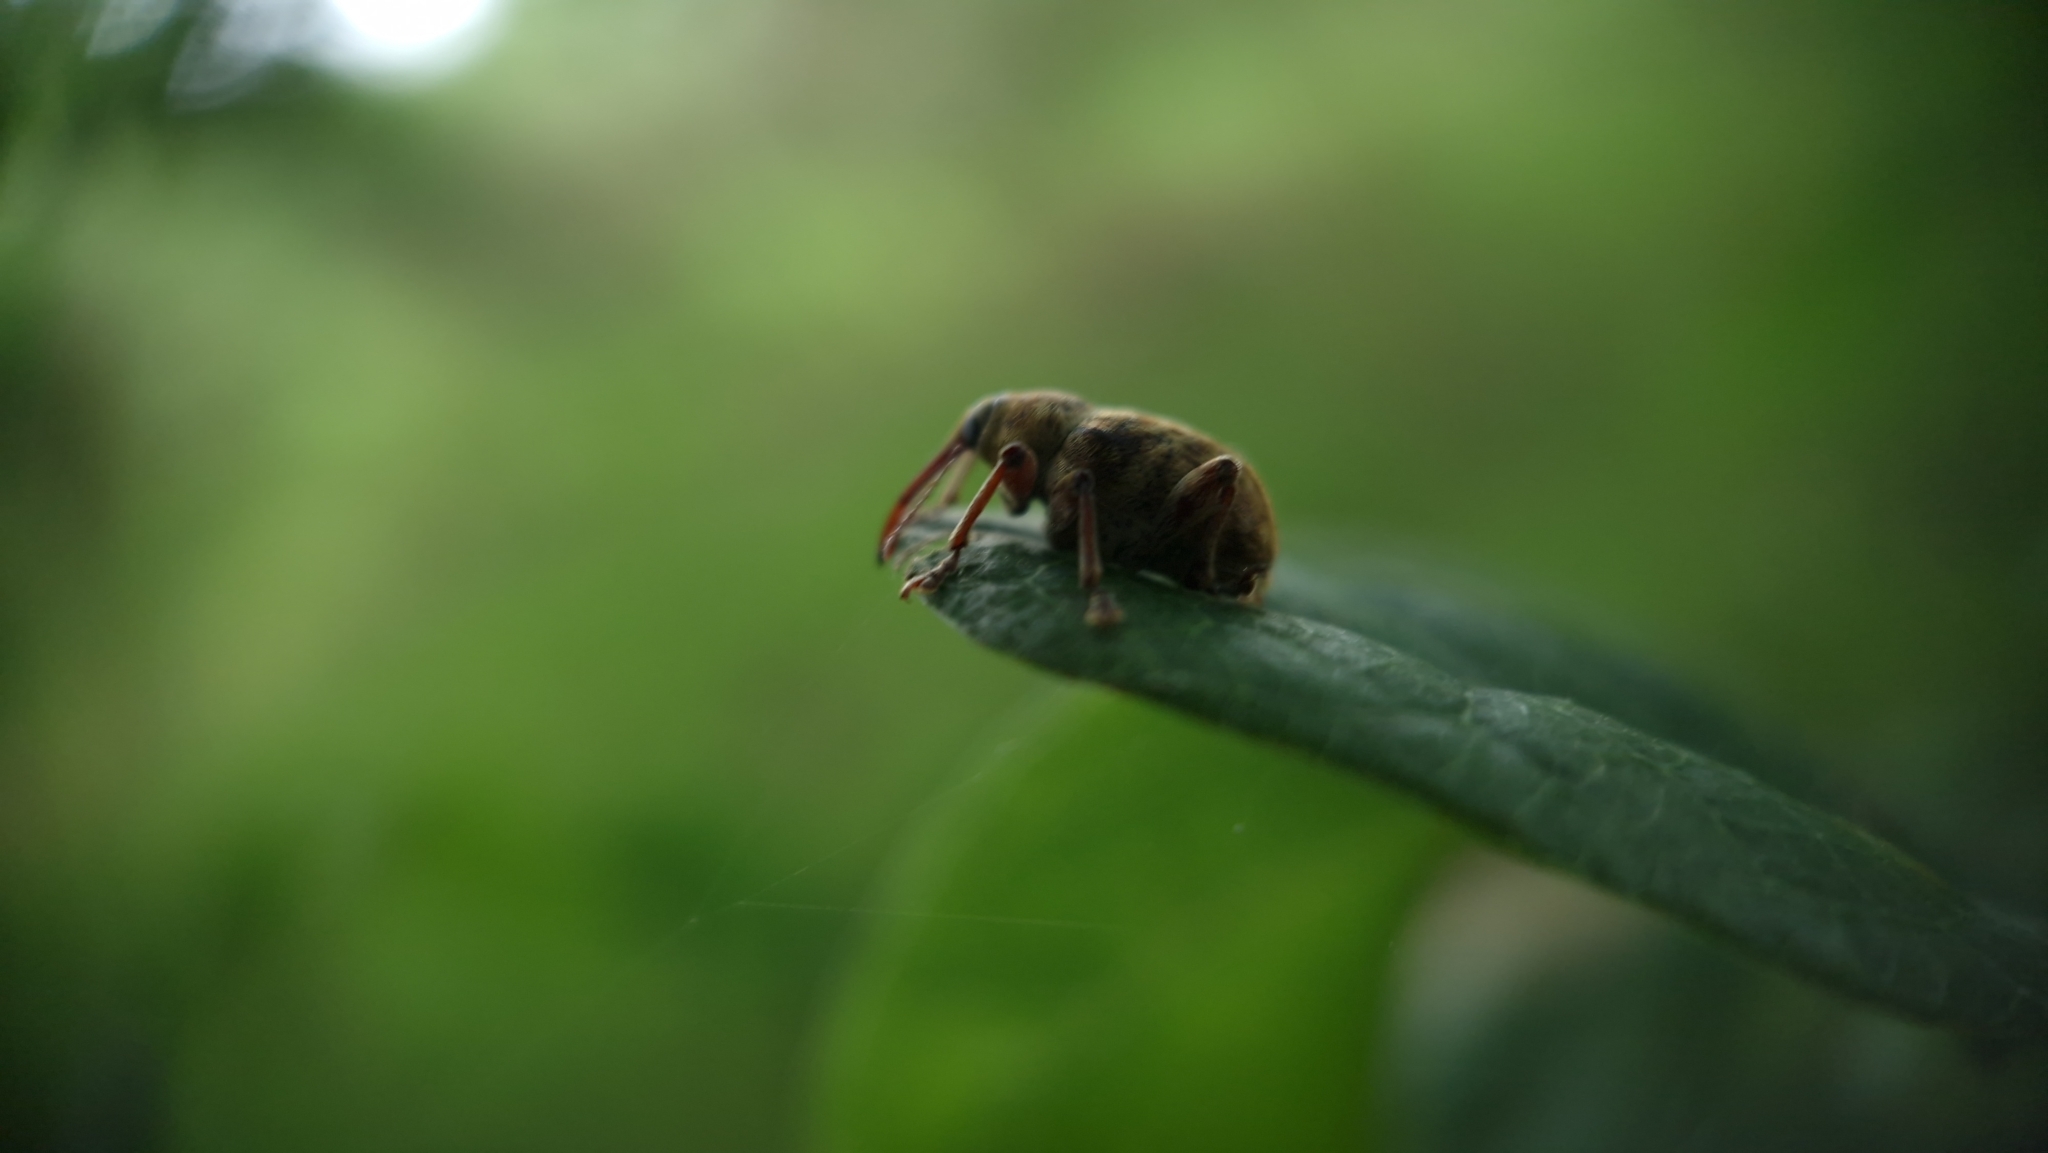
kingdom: Animalia
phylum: Arthropoda
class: Insecta
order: Coleoptera
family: Curculionidae
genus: Curculio
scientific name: Curculio venosus
